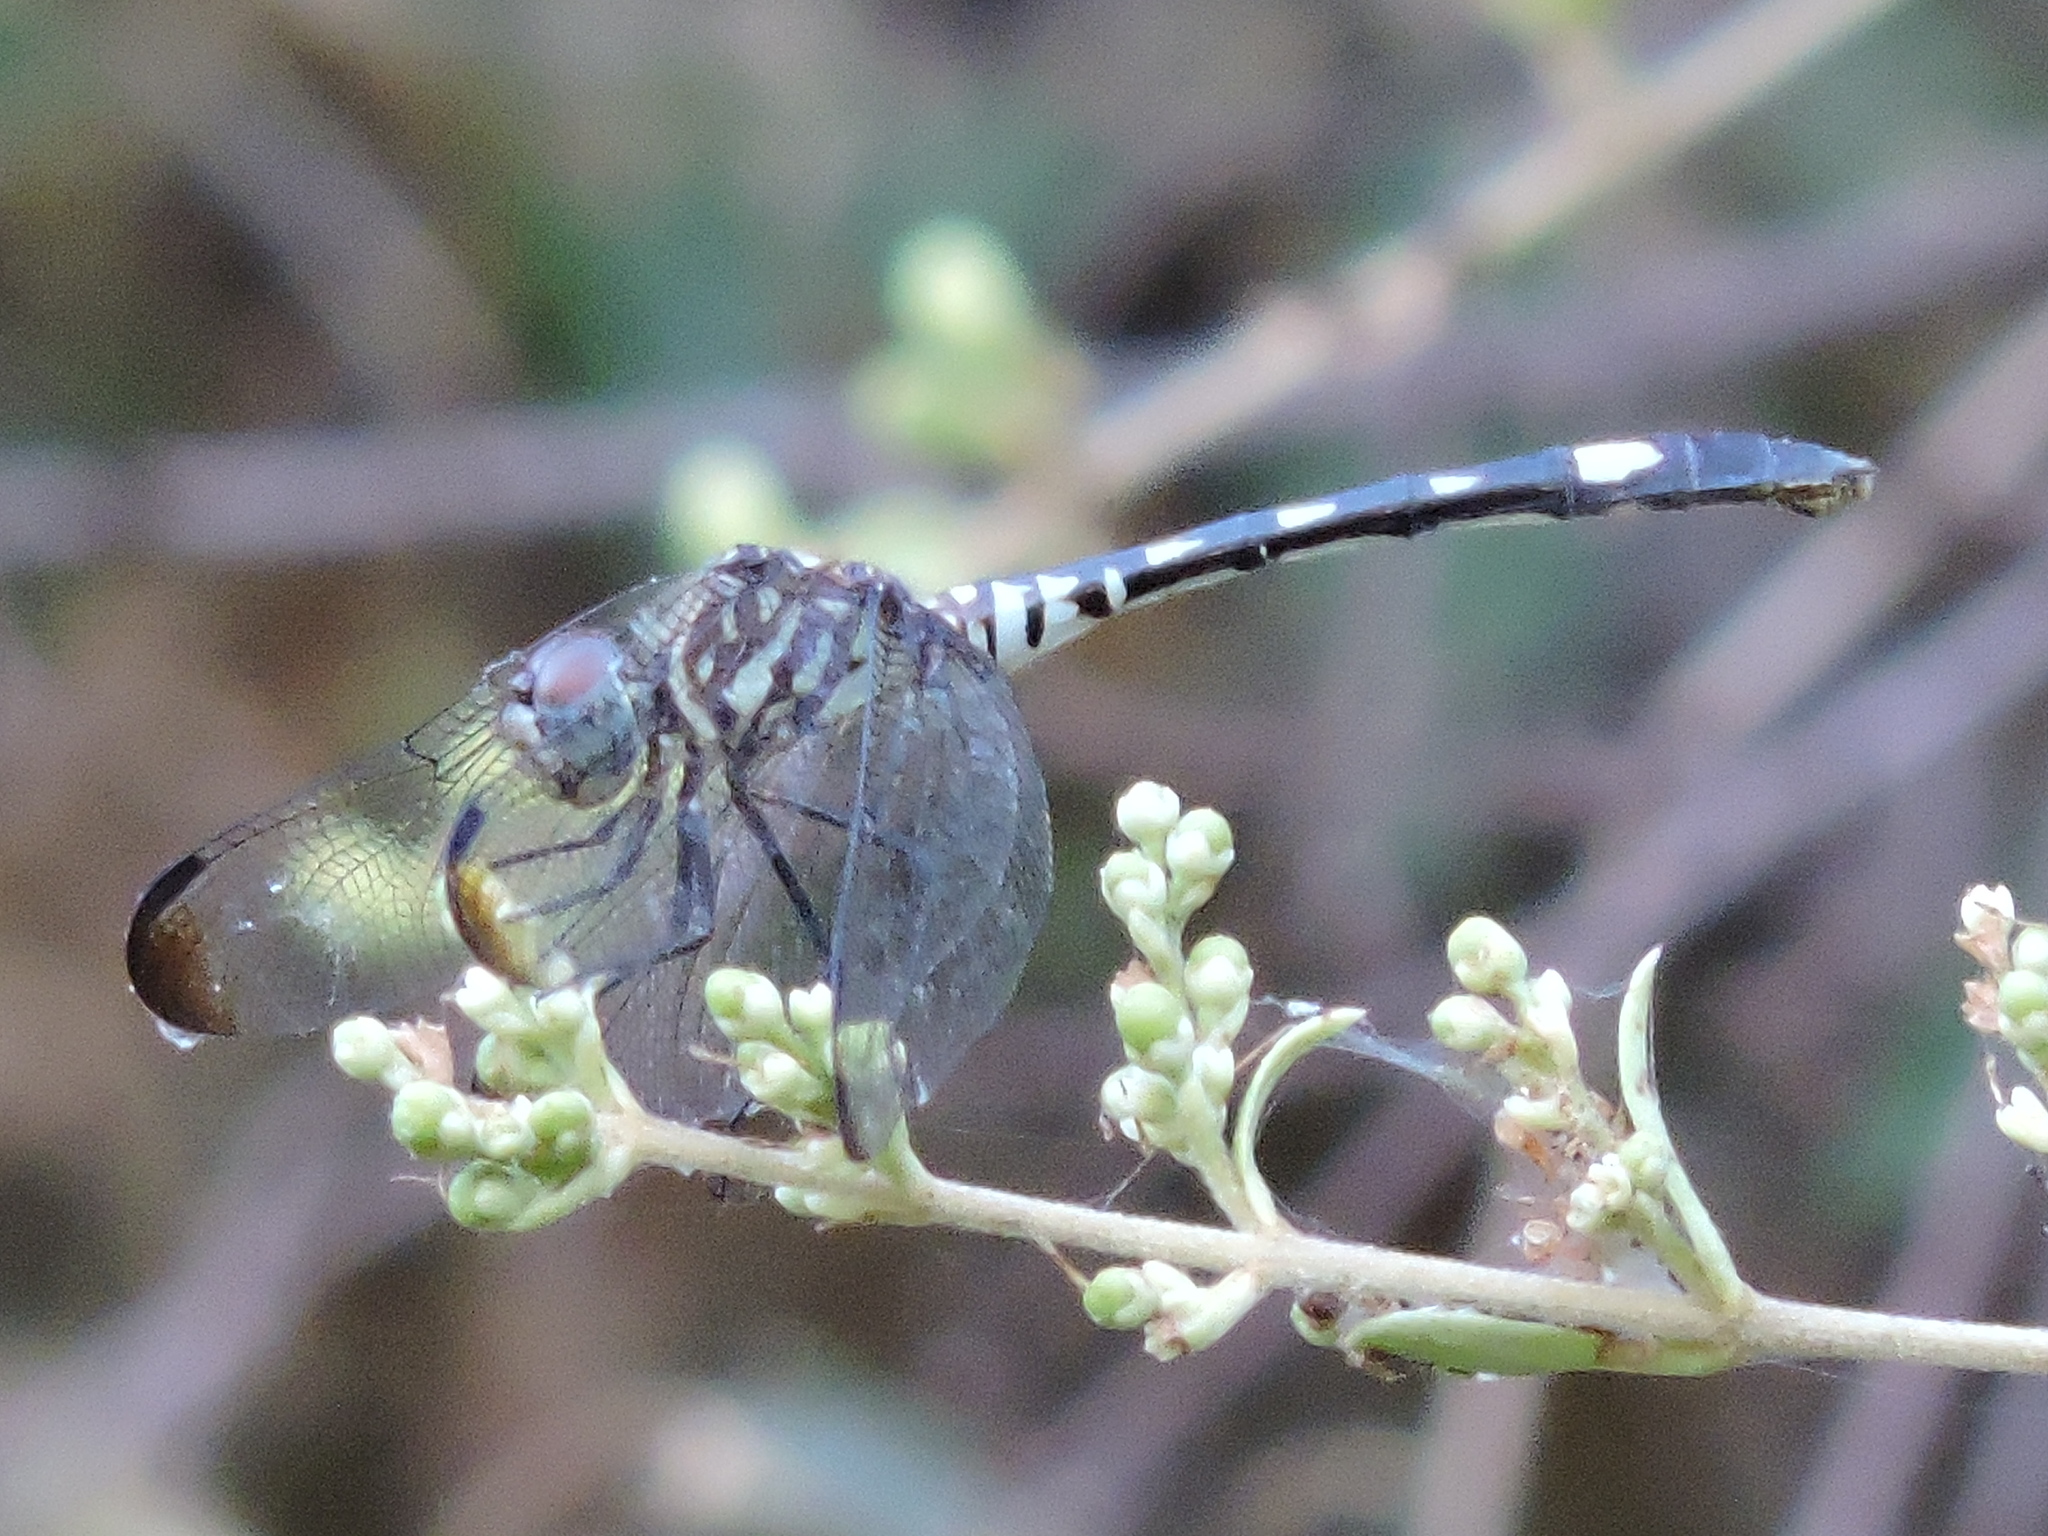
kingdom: Animalia
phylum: Arthropoda
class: Insecta
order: Odonata
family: Libellulidae
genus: Dythemis
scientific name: Dythemis velox
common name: Swift setwing
